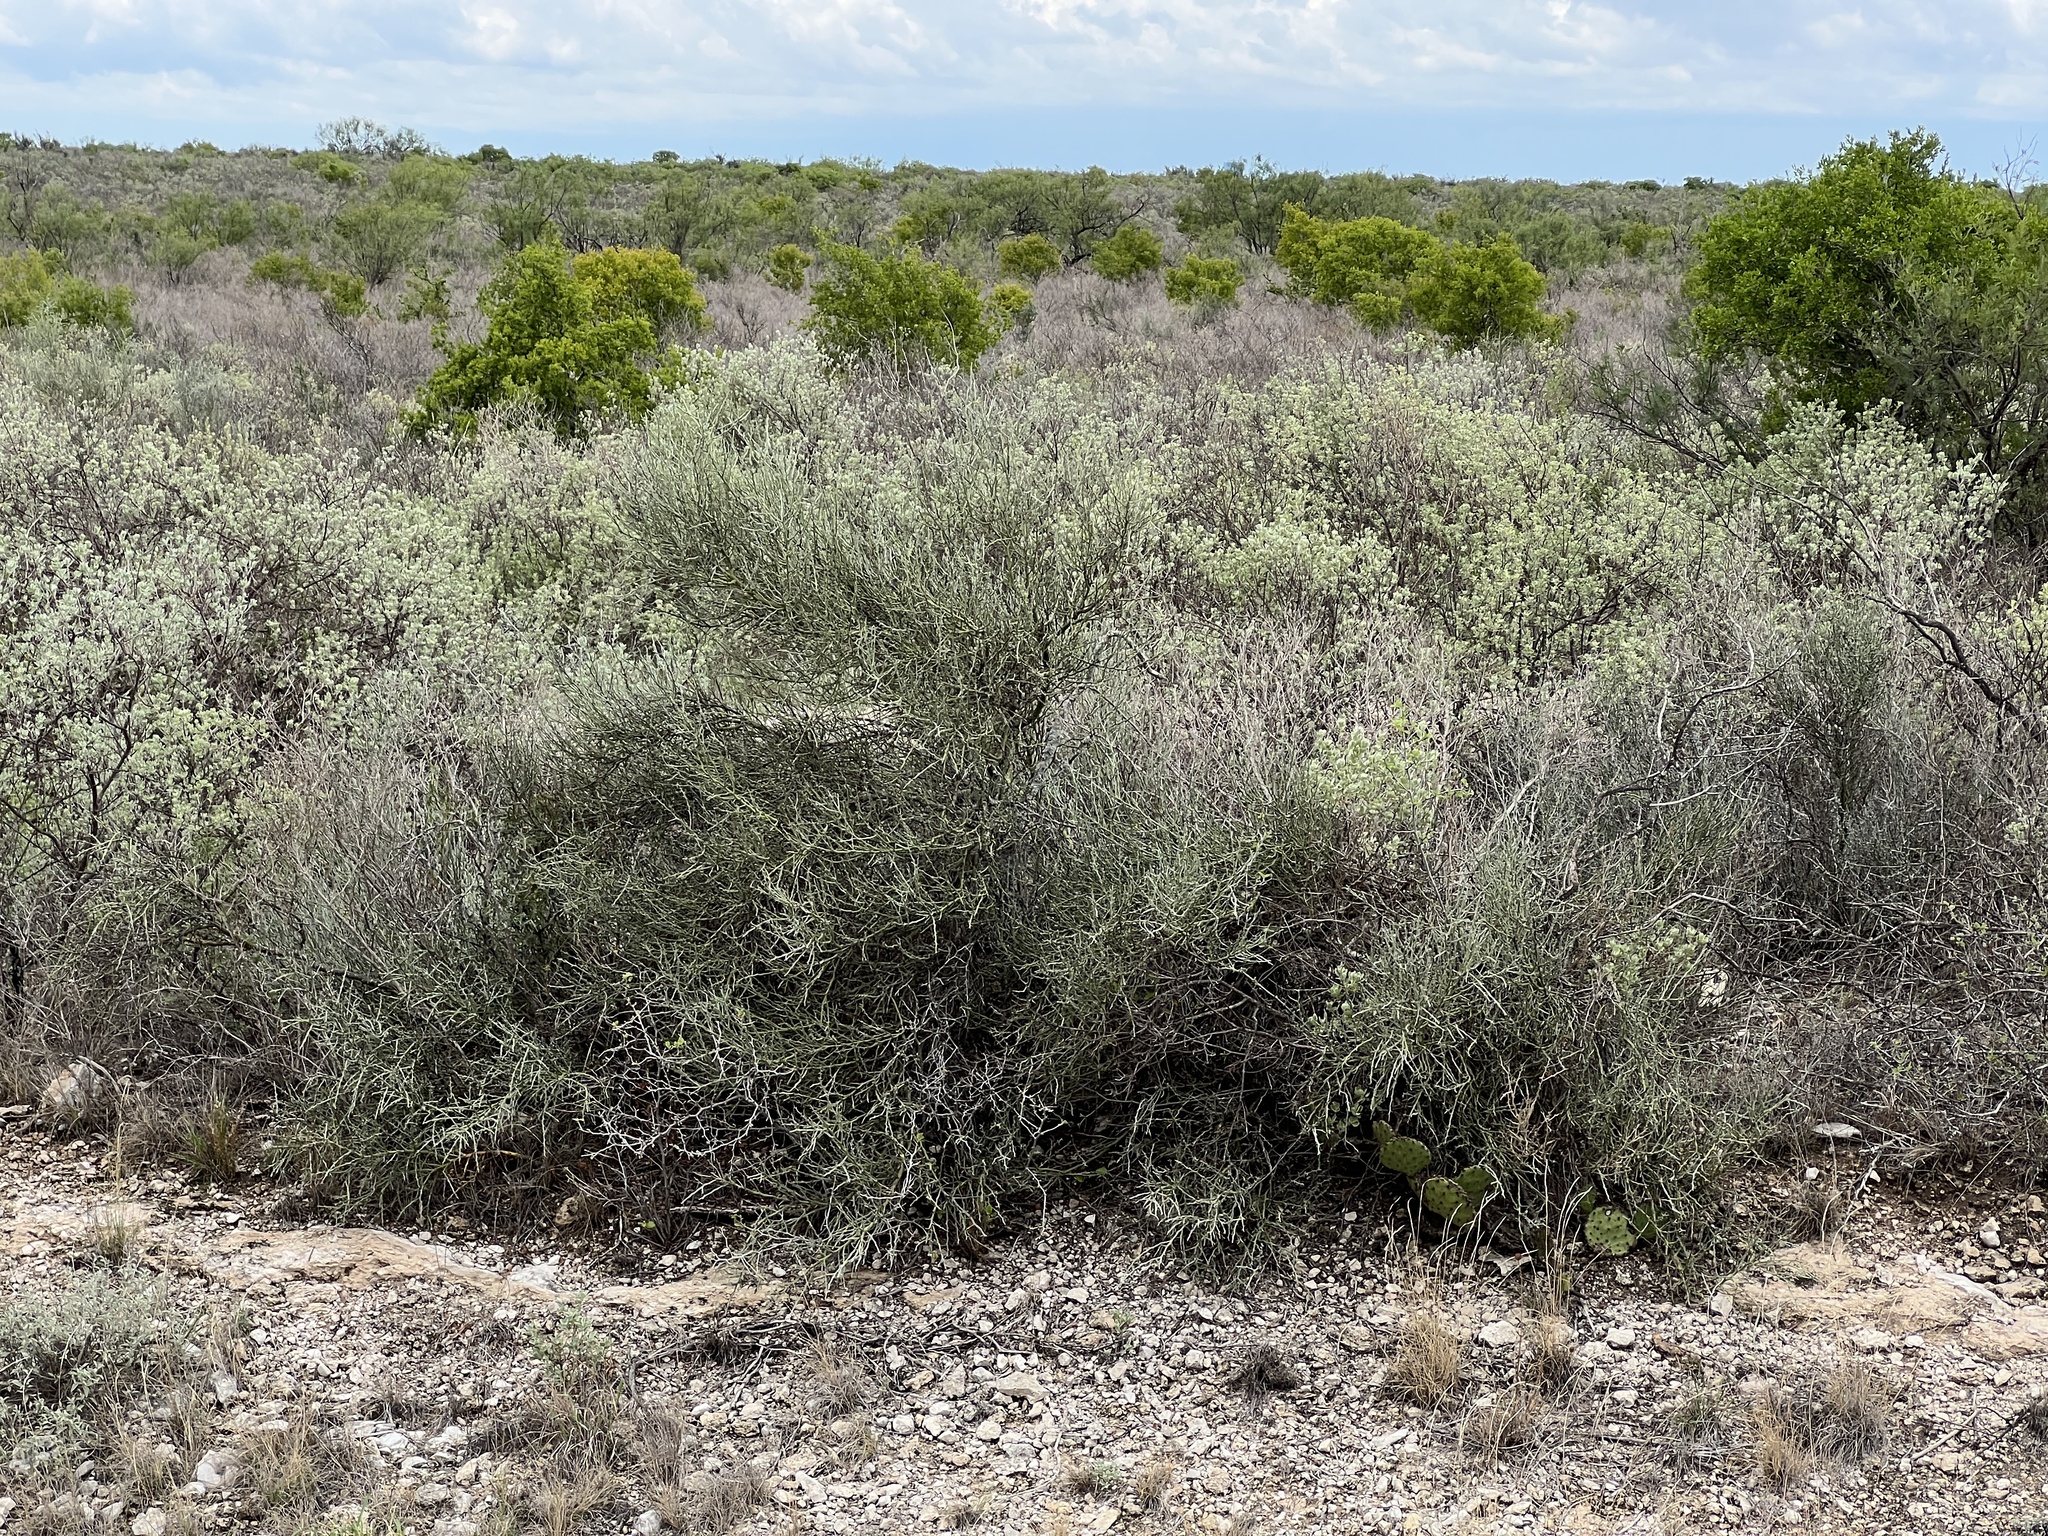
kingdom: Plantae
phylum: Tracheophyta
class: Magnoliopsida
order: Fabales
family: Fabaceae
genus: Parkinsonia
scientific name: Parkinsonia texana
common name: Texas paloverde
